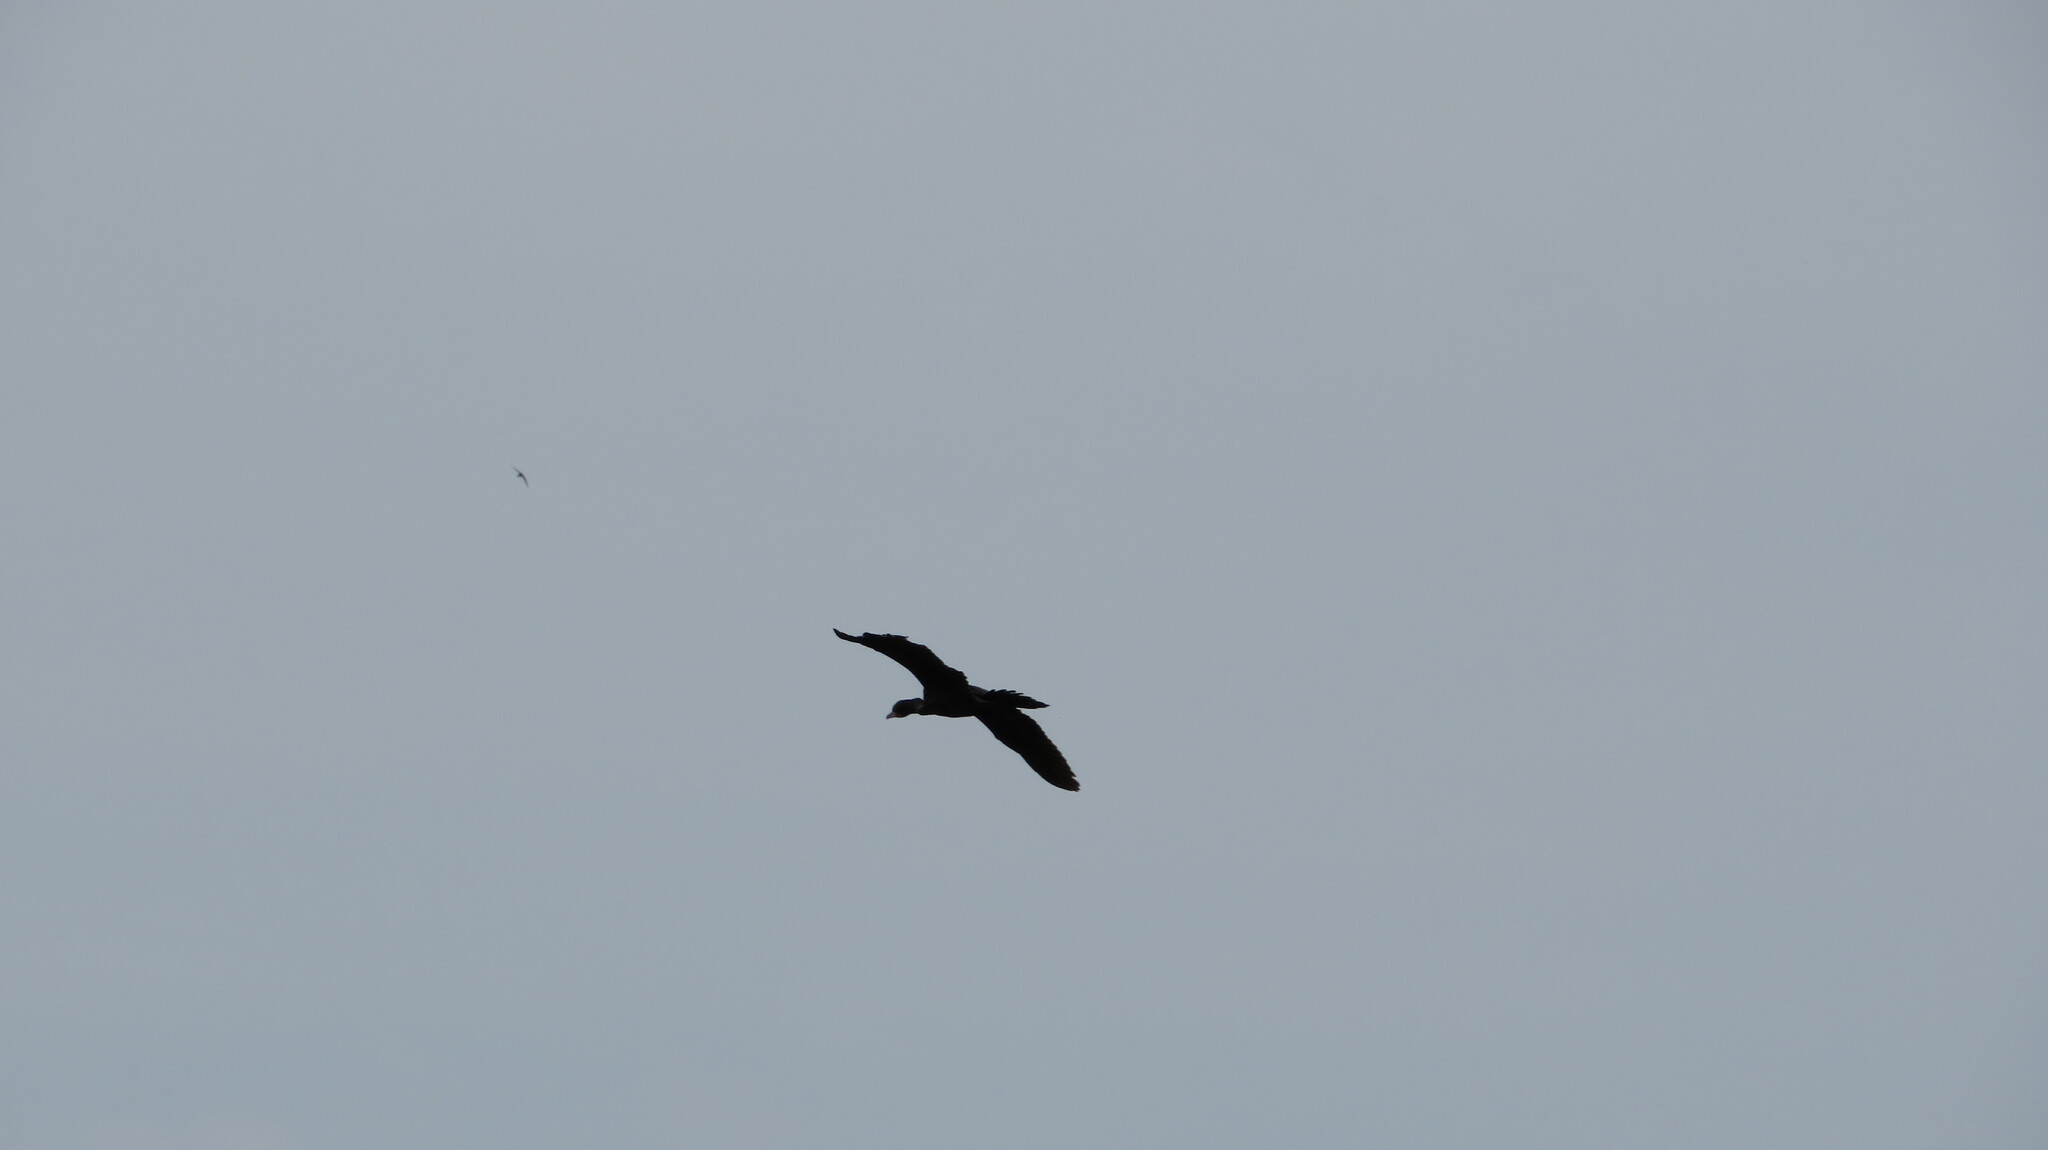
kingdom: Animalia
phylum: Chordata
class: Aves
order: Suliformes
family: Phalacrocoracidae
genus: Microcarbo
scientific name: Microcarbo niger
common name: Little cormorant
